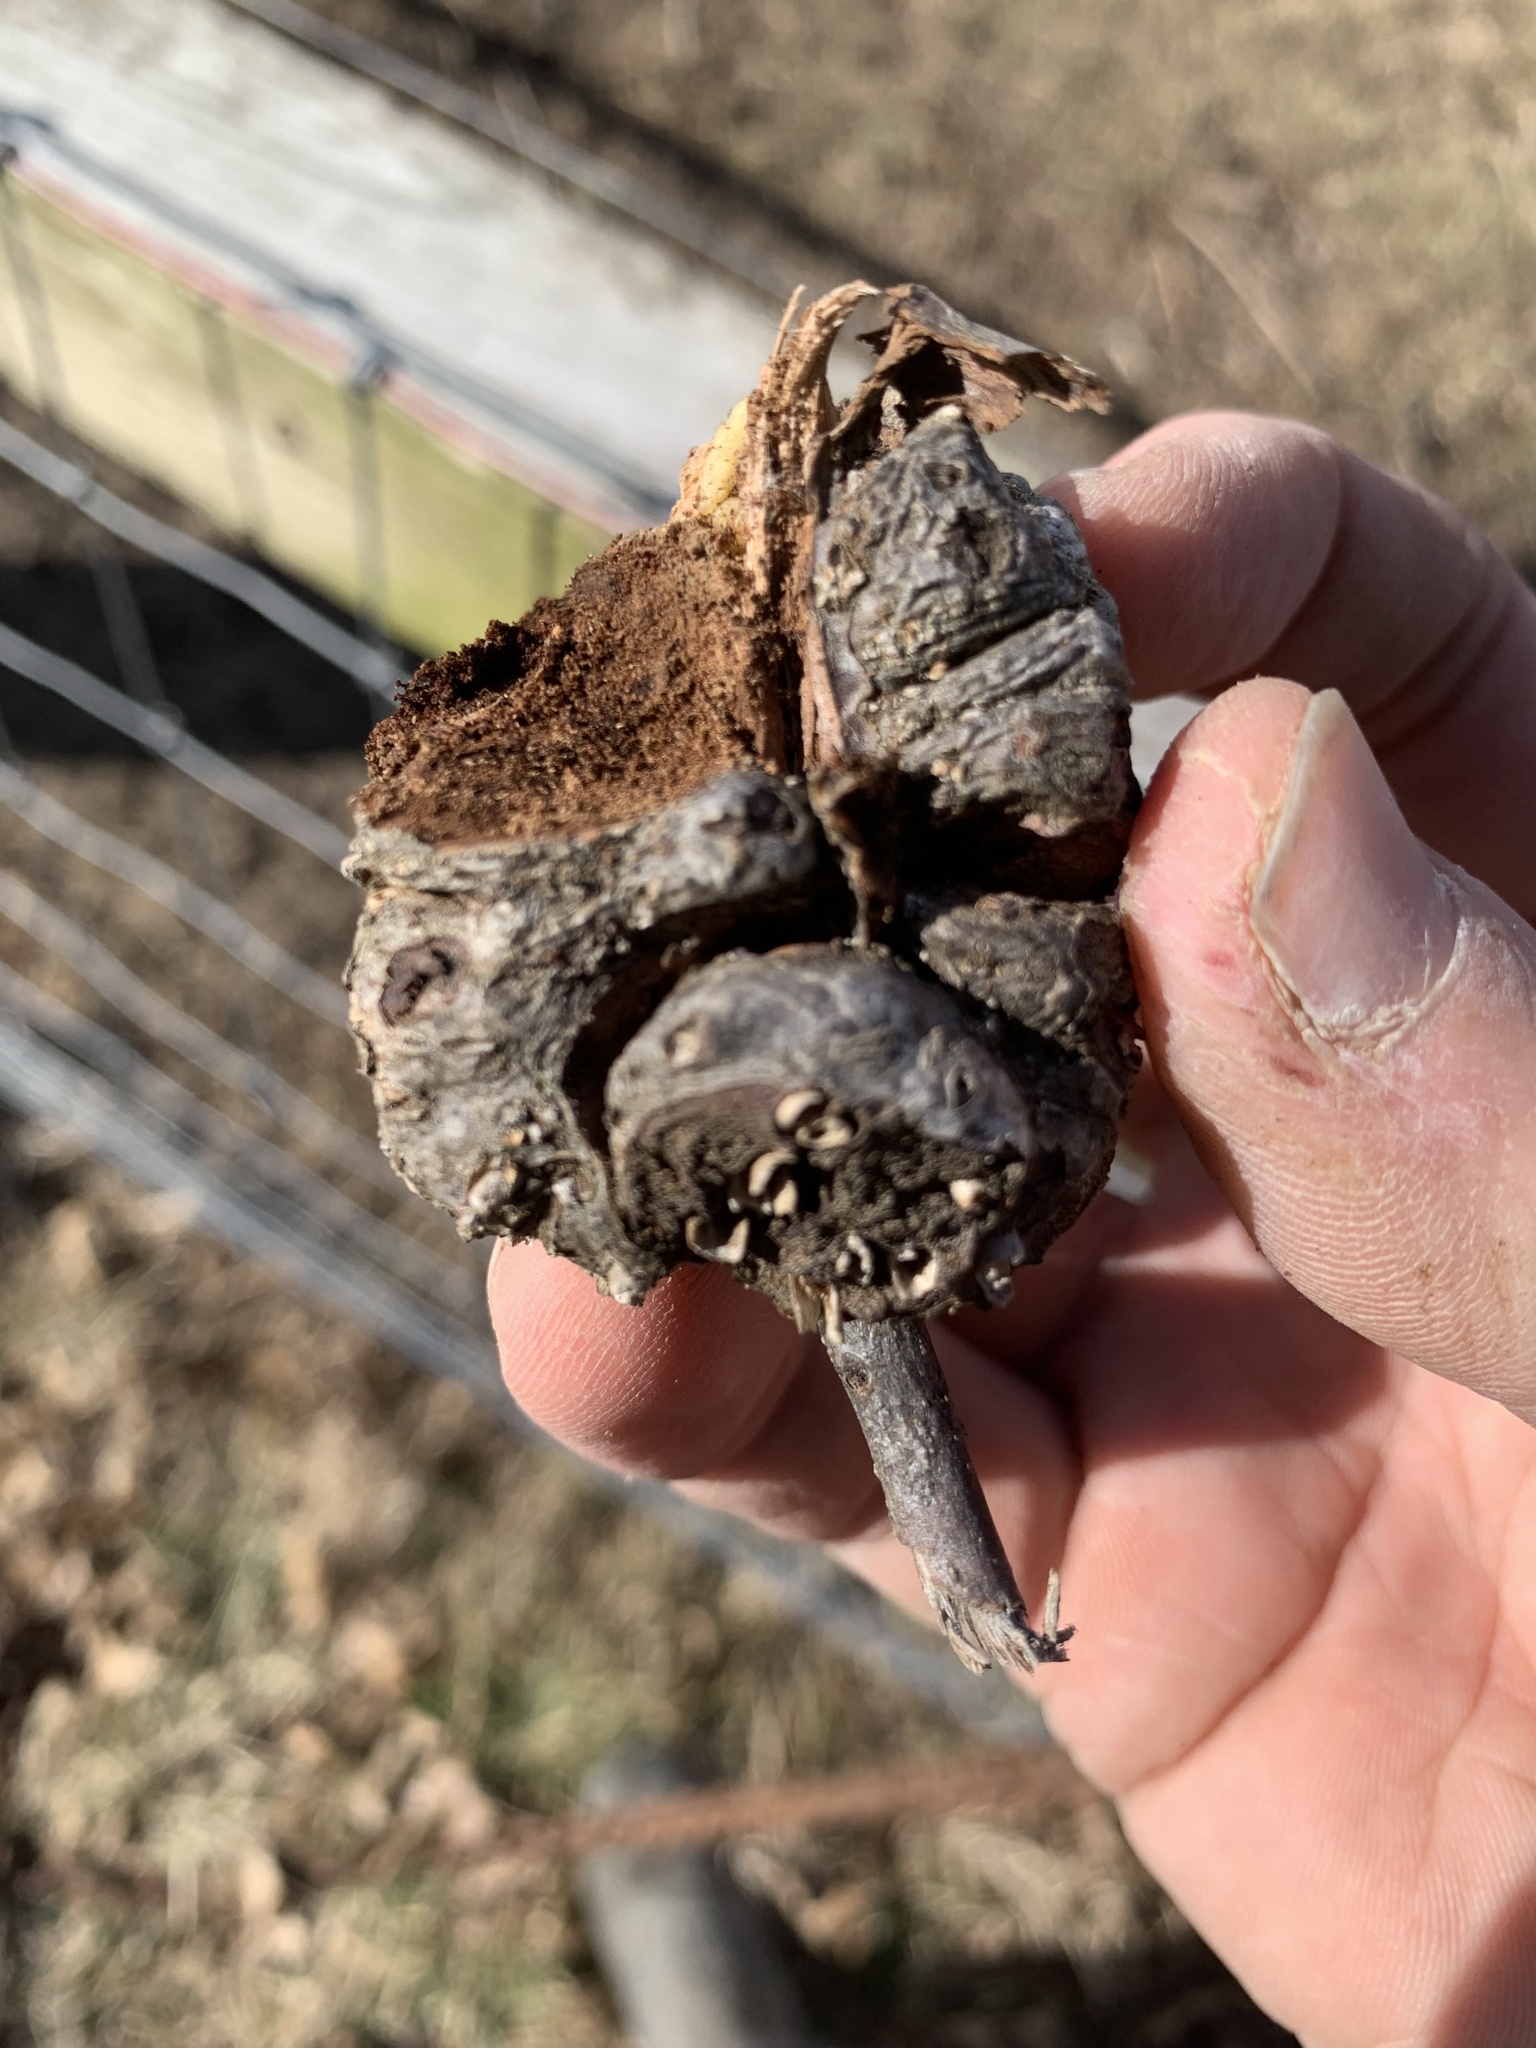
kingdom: Animalia
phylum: Arthropoda
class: Insecta
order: Hymenoptera
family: Cynipidae
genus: Callirhytis
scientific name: Callirhytis
